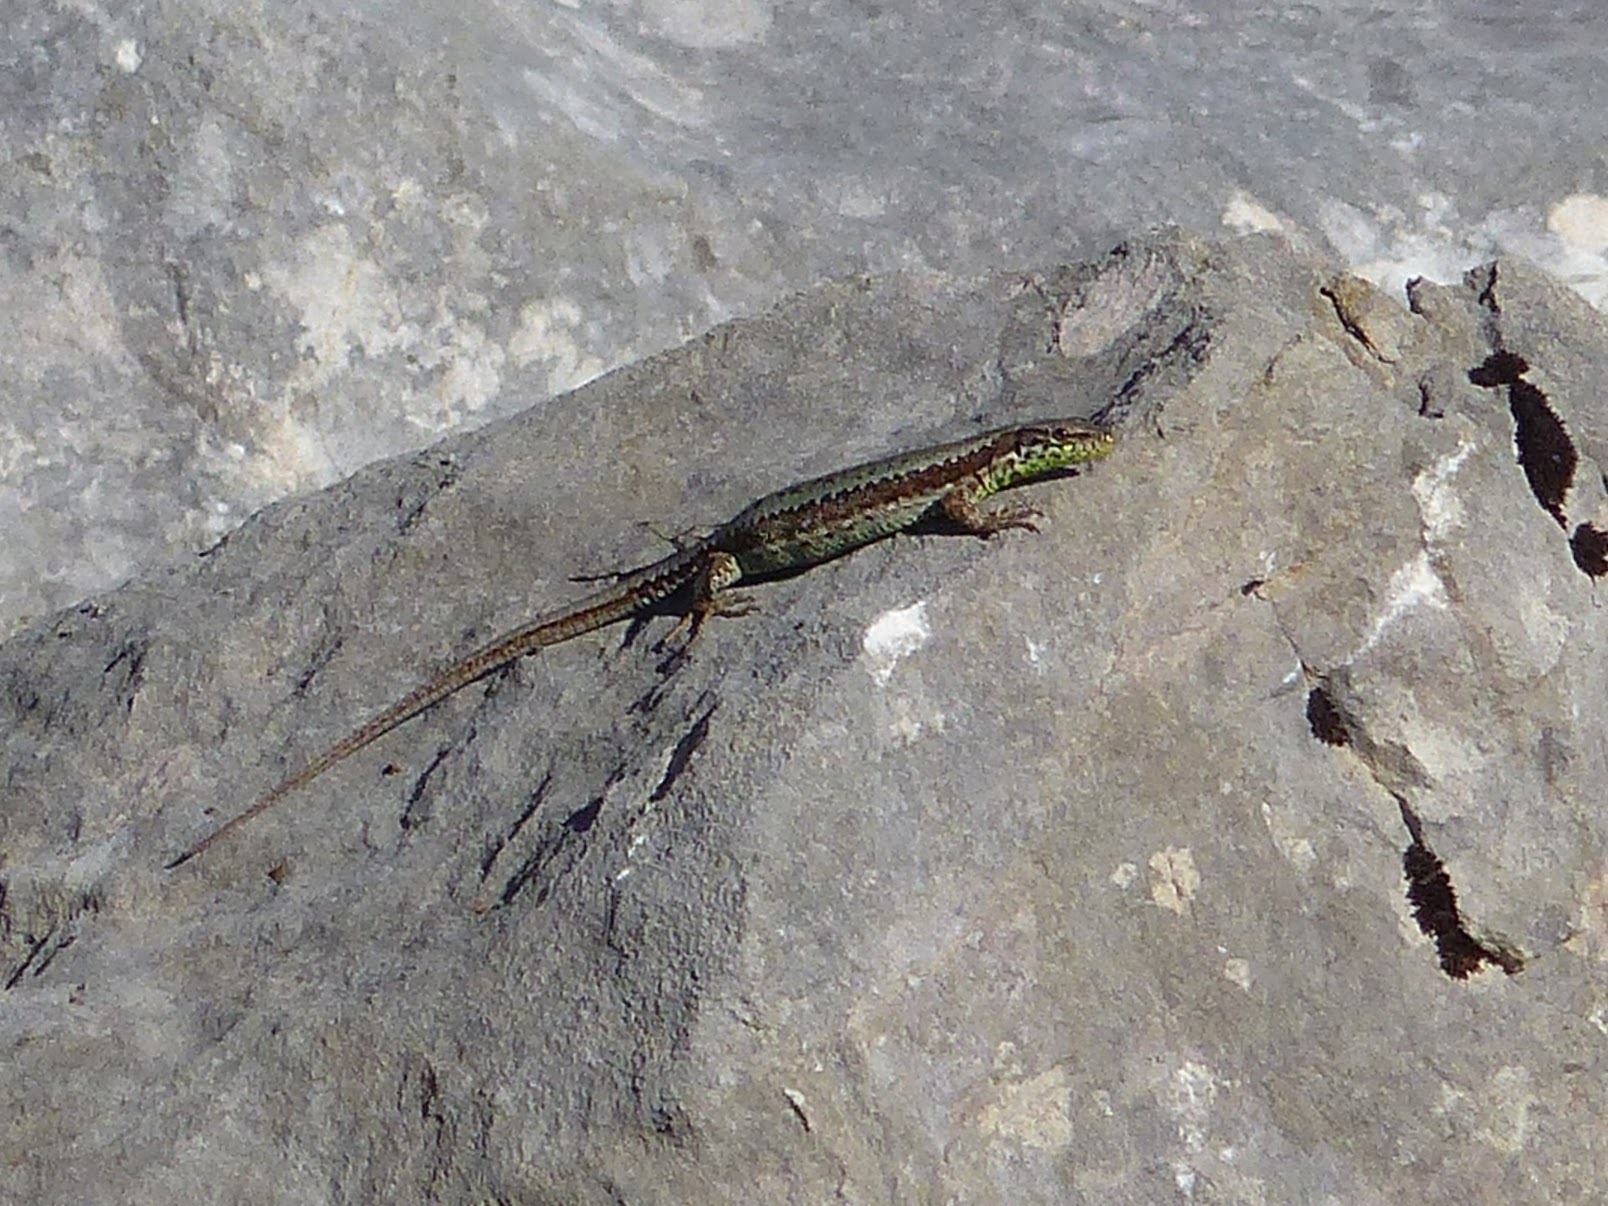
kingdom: Animalia
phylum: Chordata
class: Squamata
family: Lacertidae
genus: Iberolacerta
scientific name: Iberolacerta monticola
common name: Iberian mountain lizard
